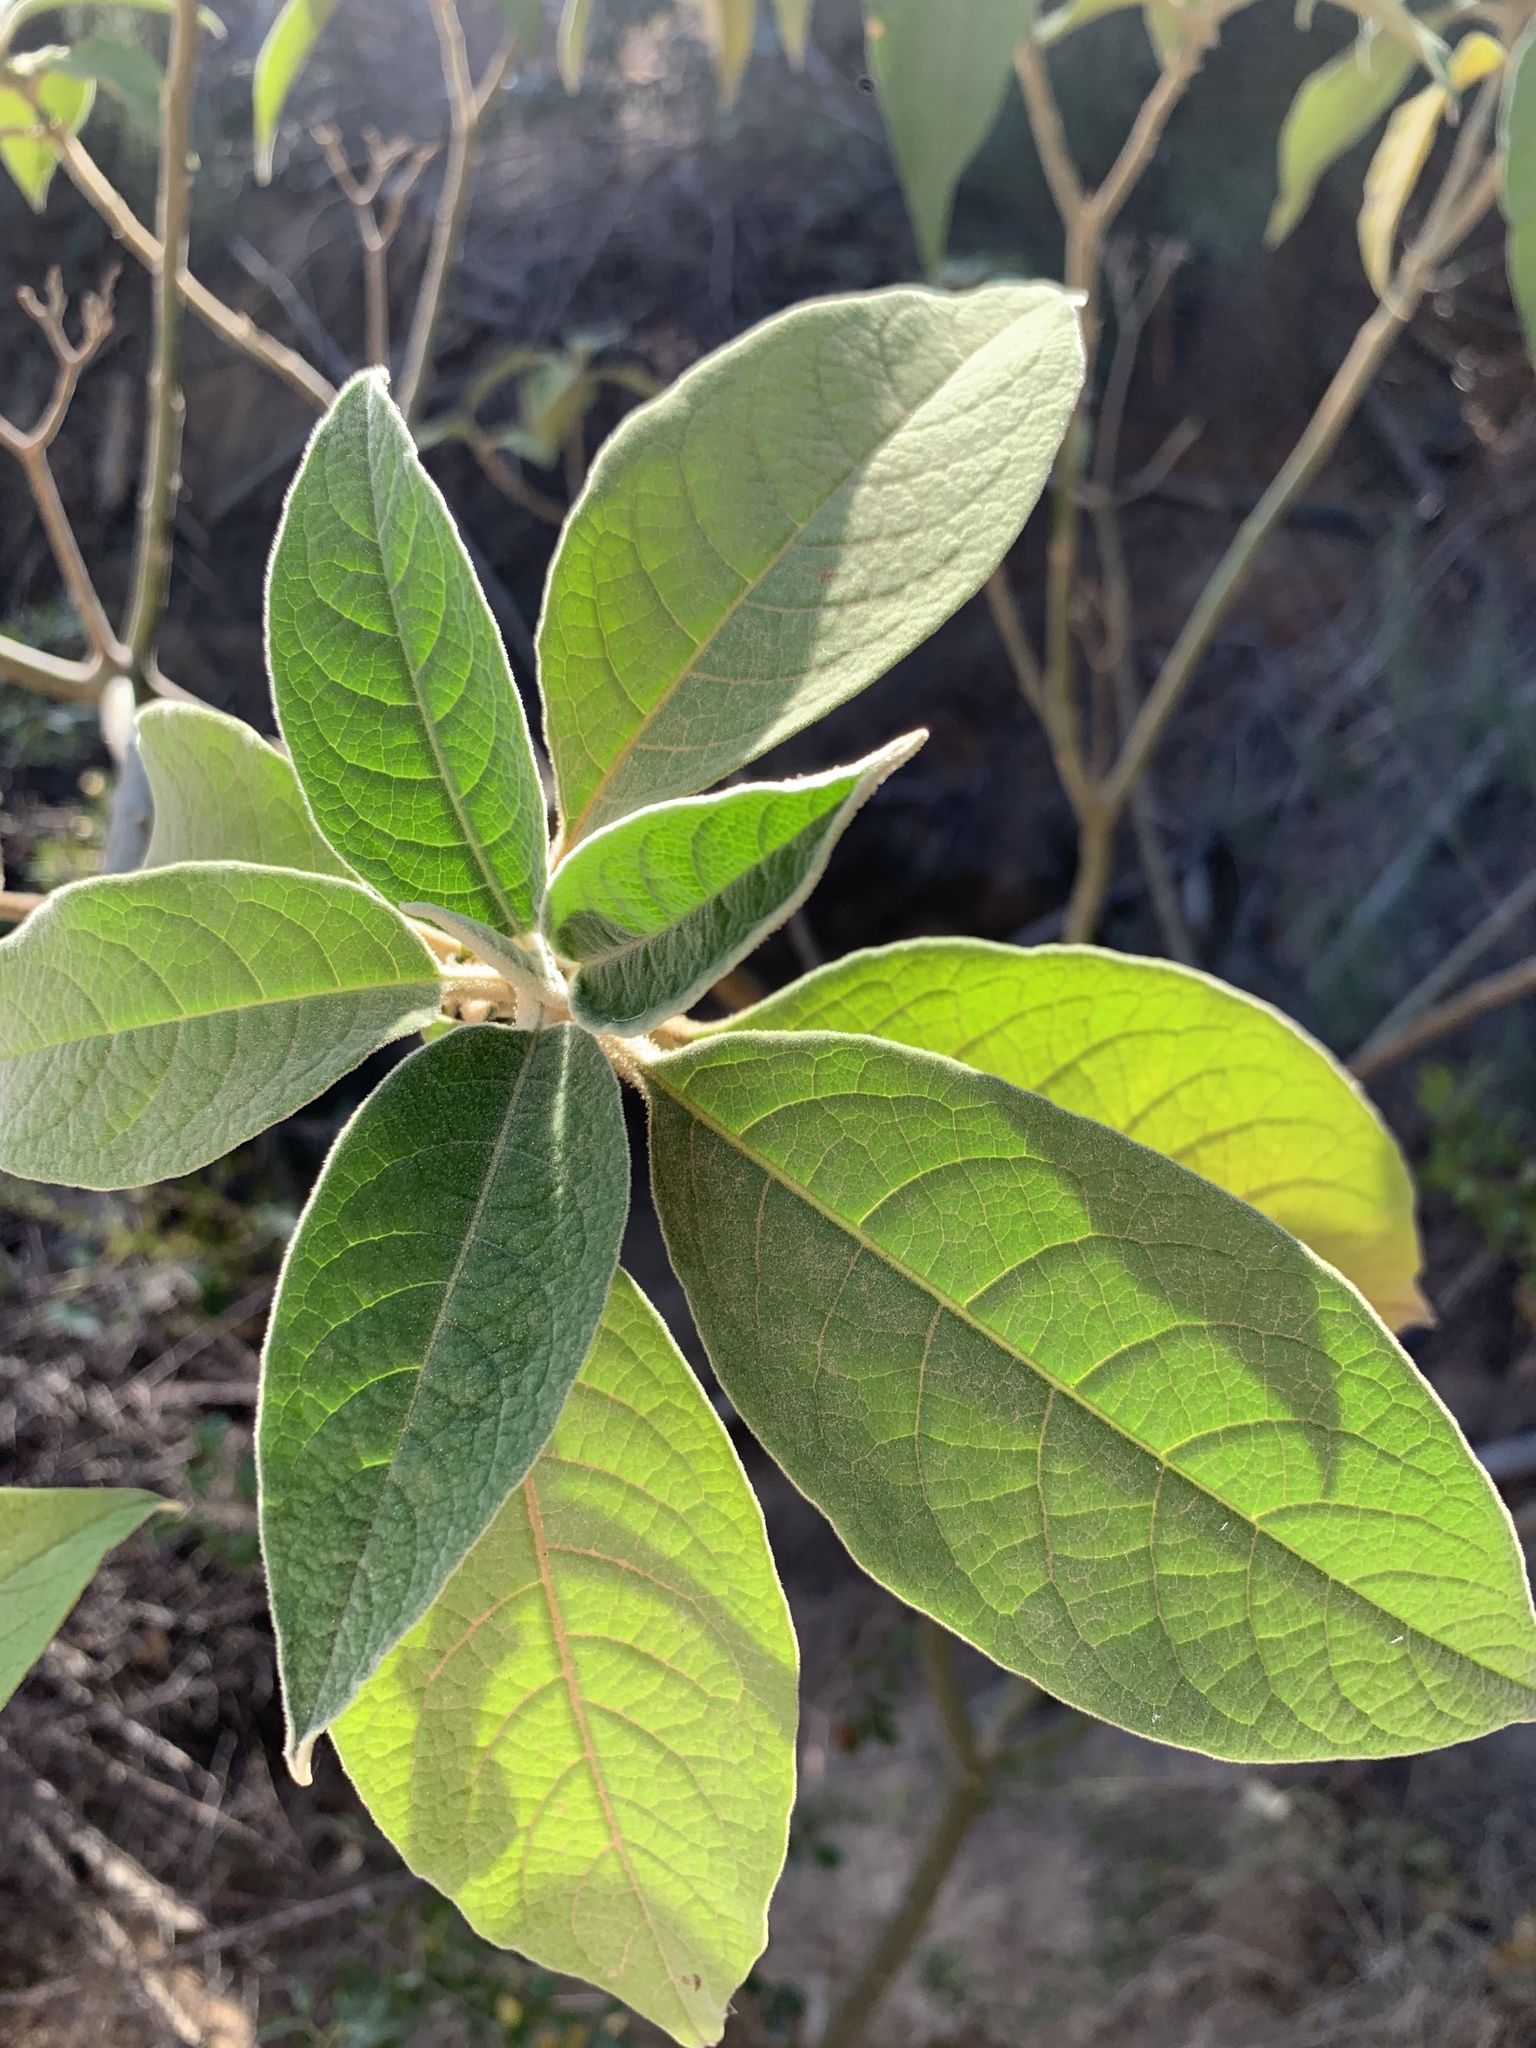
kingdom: Plantae
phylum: Tracheophyta
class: Magnoliopsida
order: Solanales
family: Solanaceae
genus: Solanum
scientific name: Solanum mauritianum
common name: Earleaf nightshade
